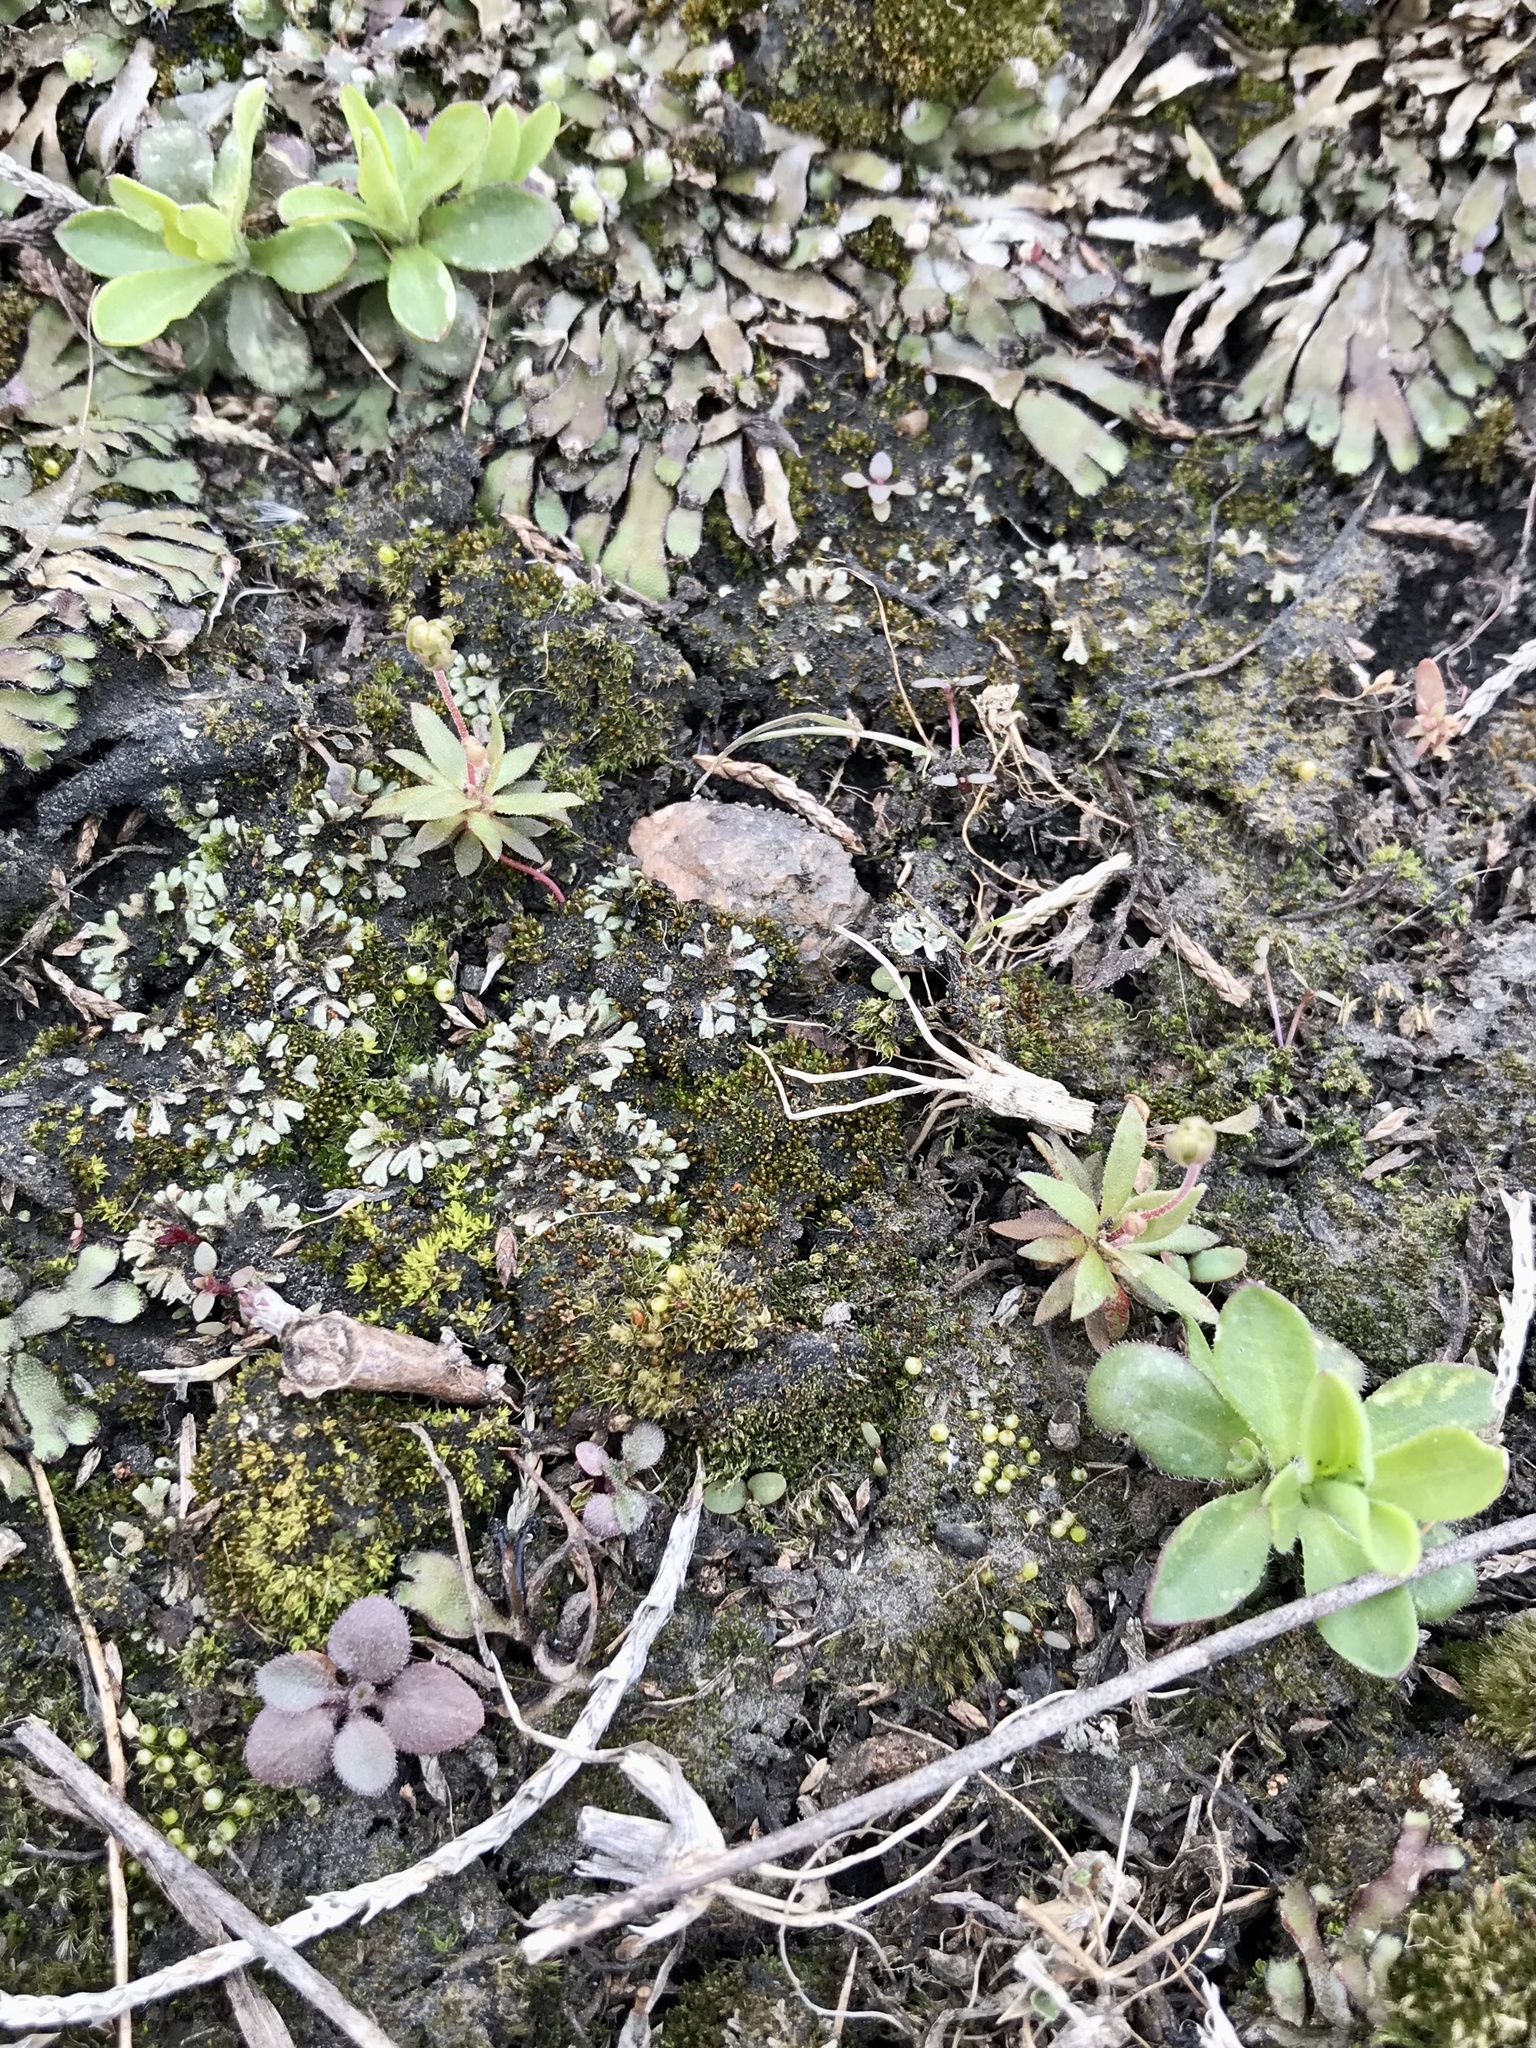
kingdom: Plantae
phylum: Tracheophyta
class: Magnoliopsida
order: Brassicales
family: Brassicaceae
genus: Draba
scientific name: Draba nemorosa
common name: Wood whitlow-grass
